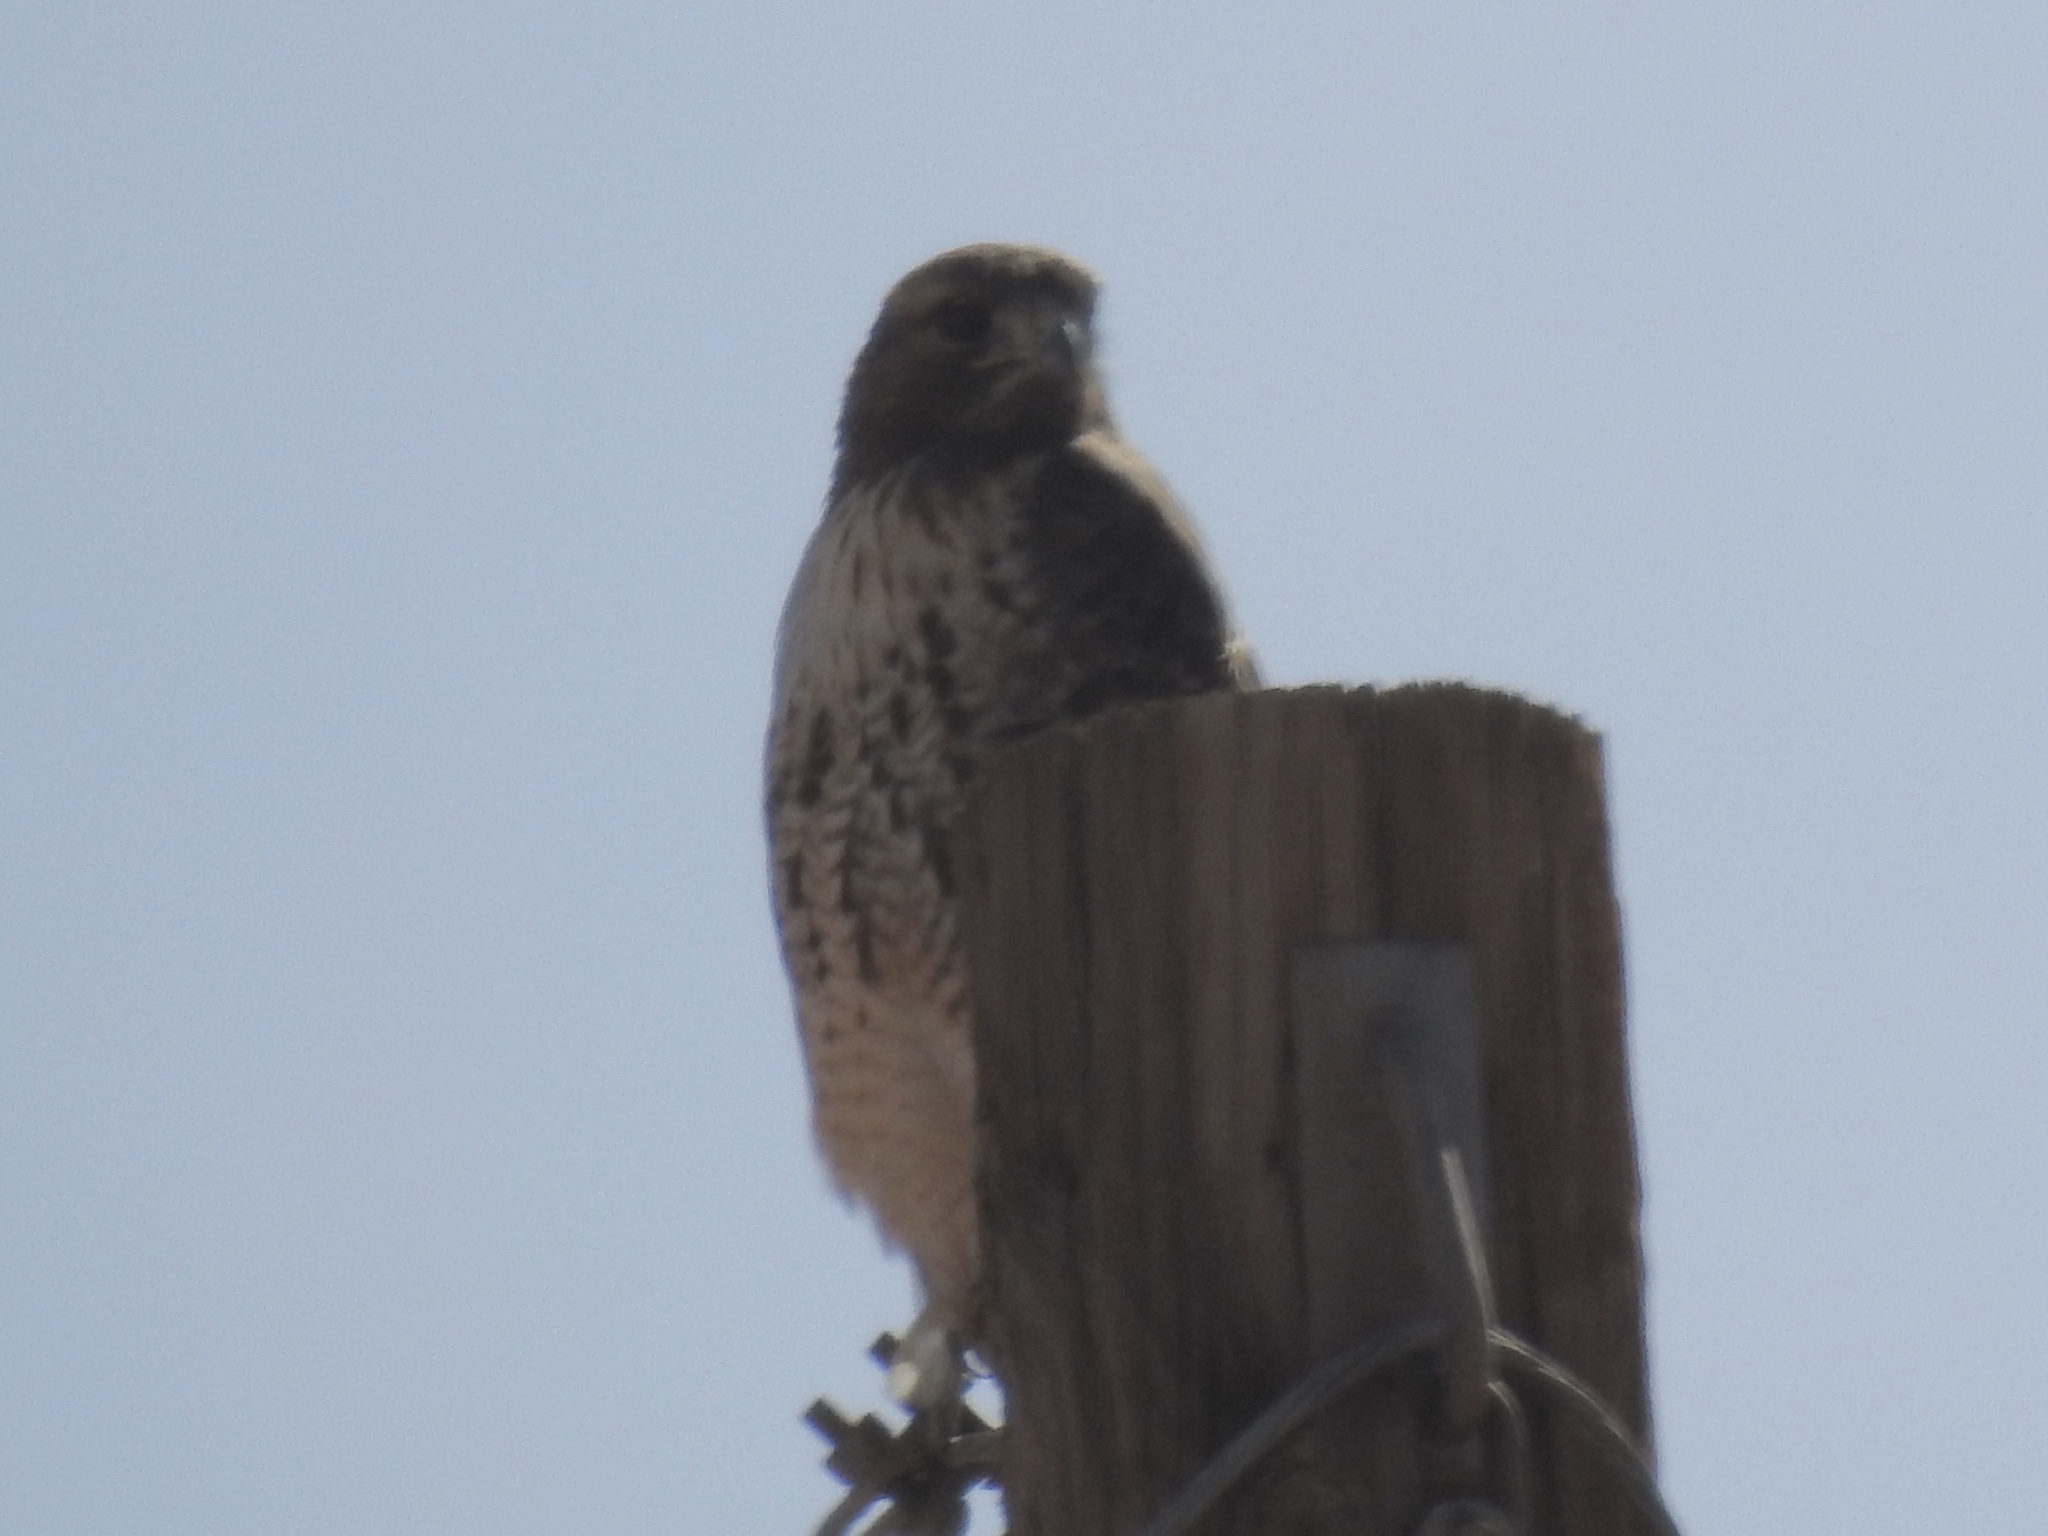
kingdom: Animalia
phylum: Chordata
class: Aves
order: Accipitriformes
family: Accipitridae
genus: Buteo
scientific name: Buteo jamaicensis
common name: Red-tailed hawk
